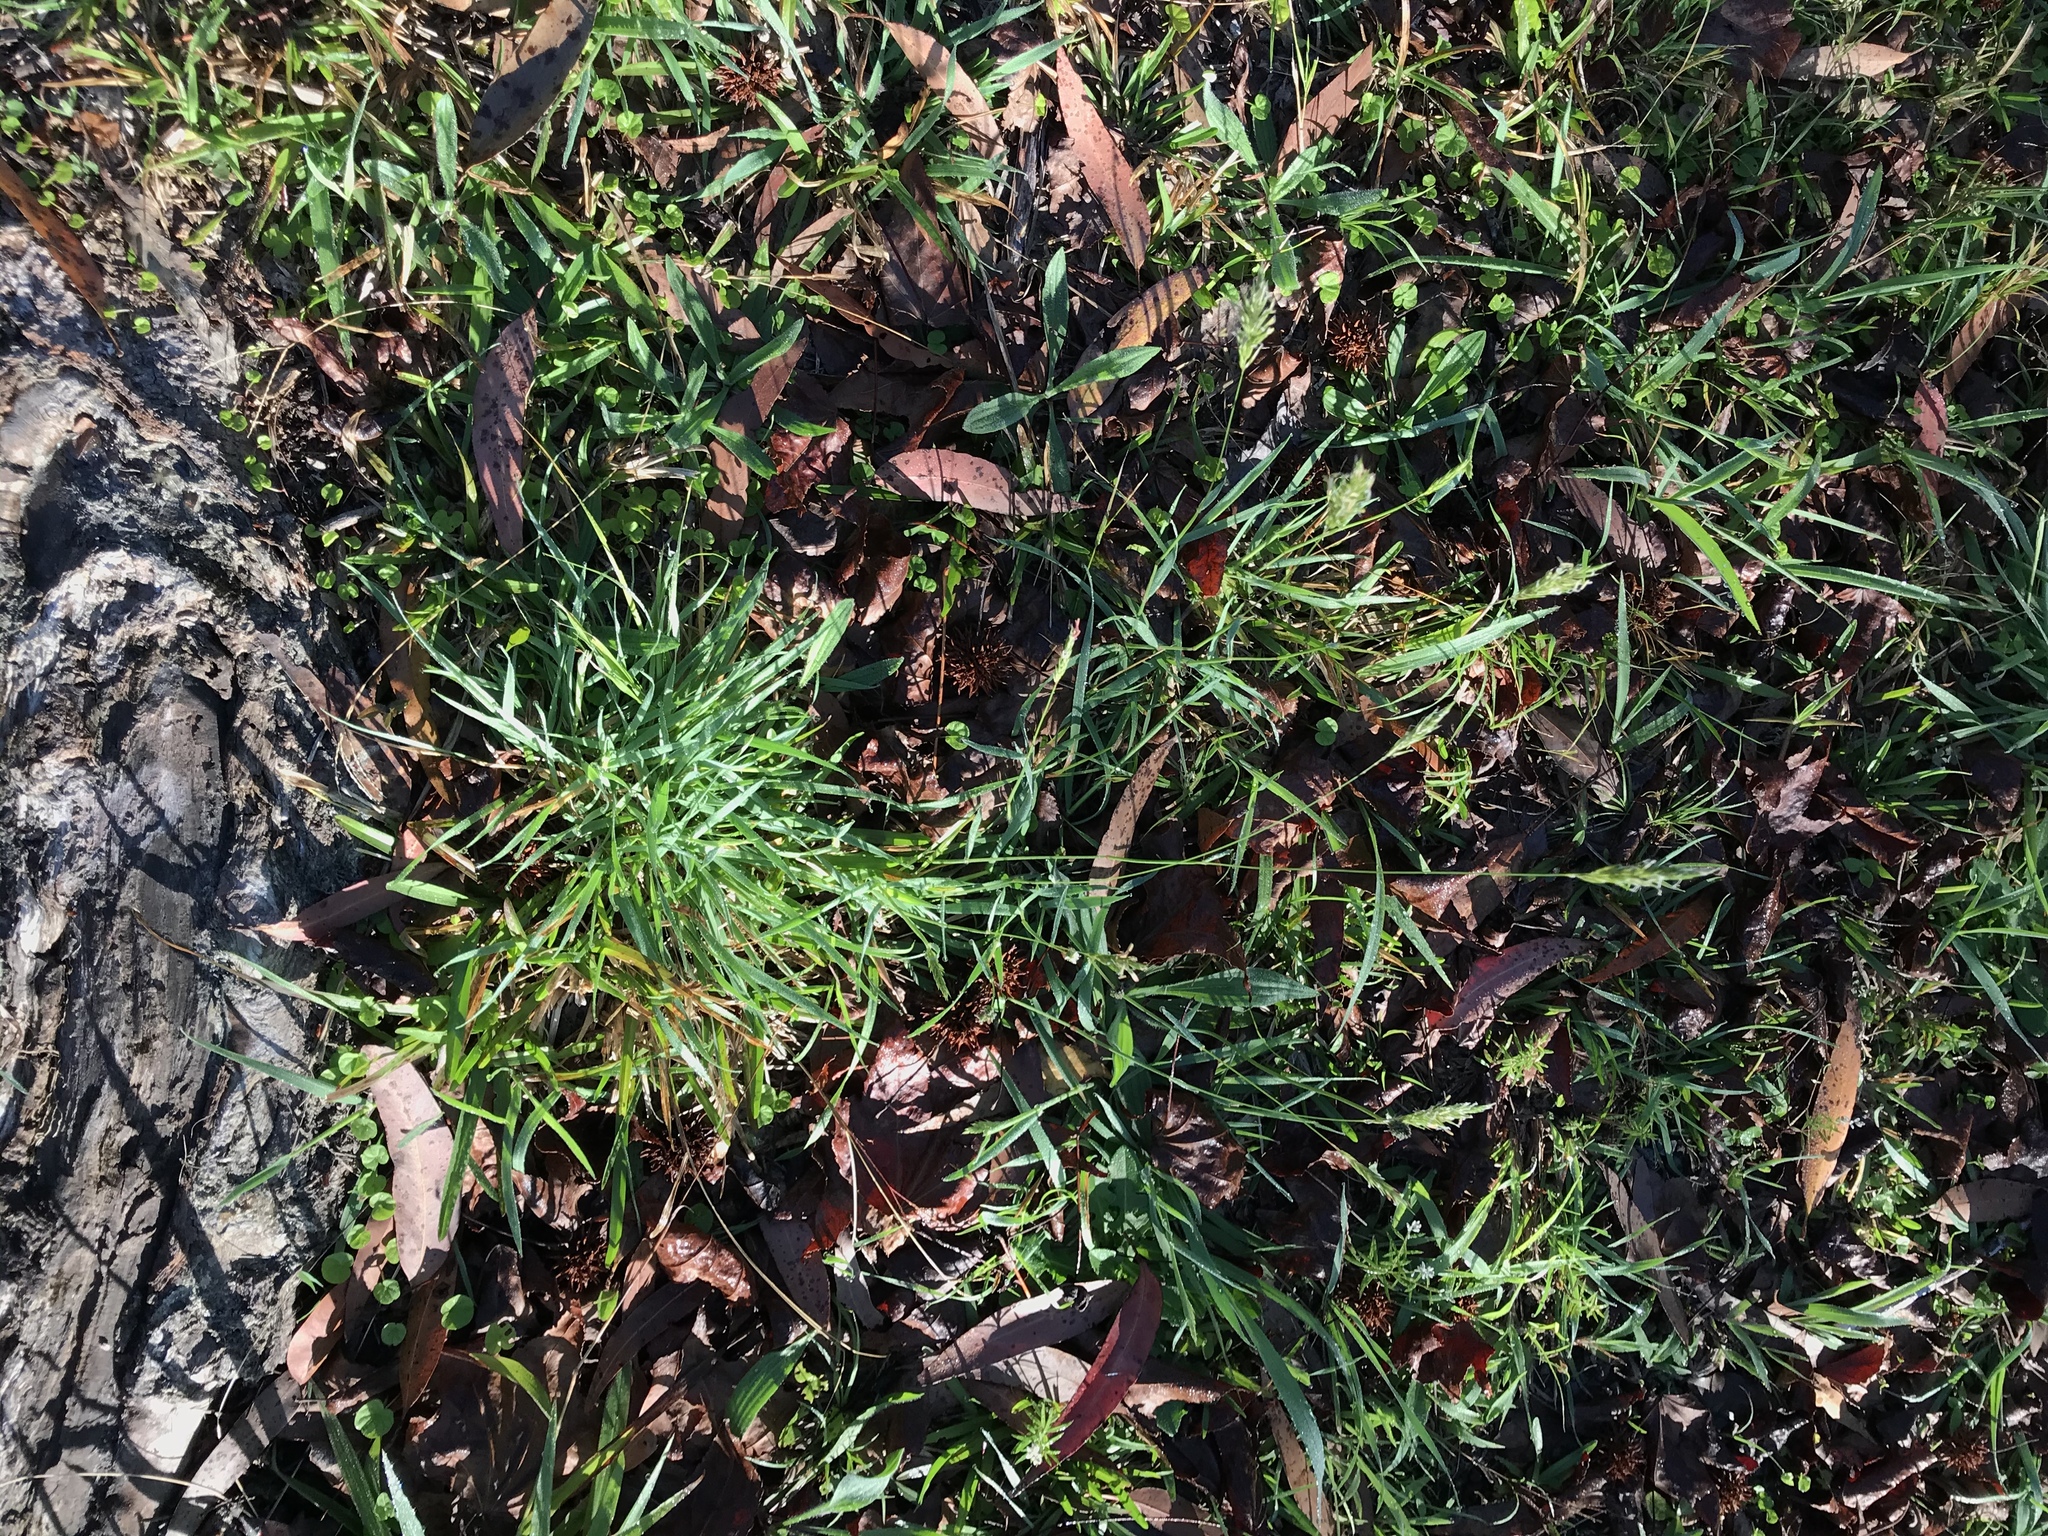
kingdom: Plantae
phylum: Tracheophyta
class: Liliopsida
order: Poales
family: Poaceae
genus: Anthoxanthum
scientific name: Anthoxanthum odoratum
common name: Sweet vernalgrass
